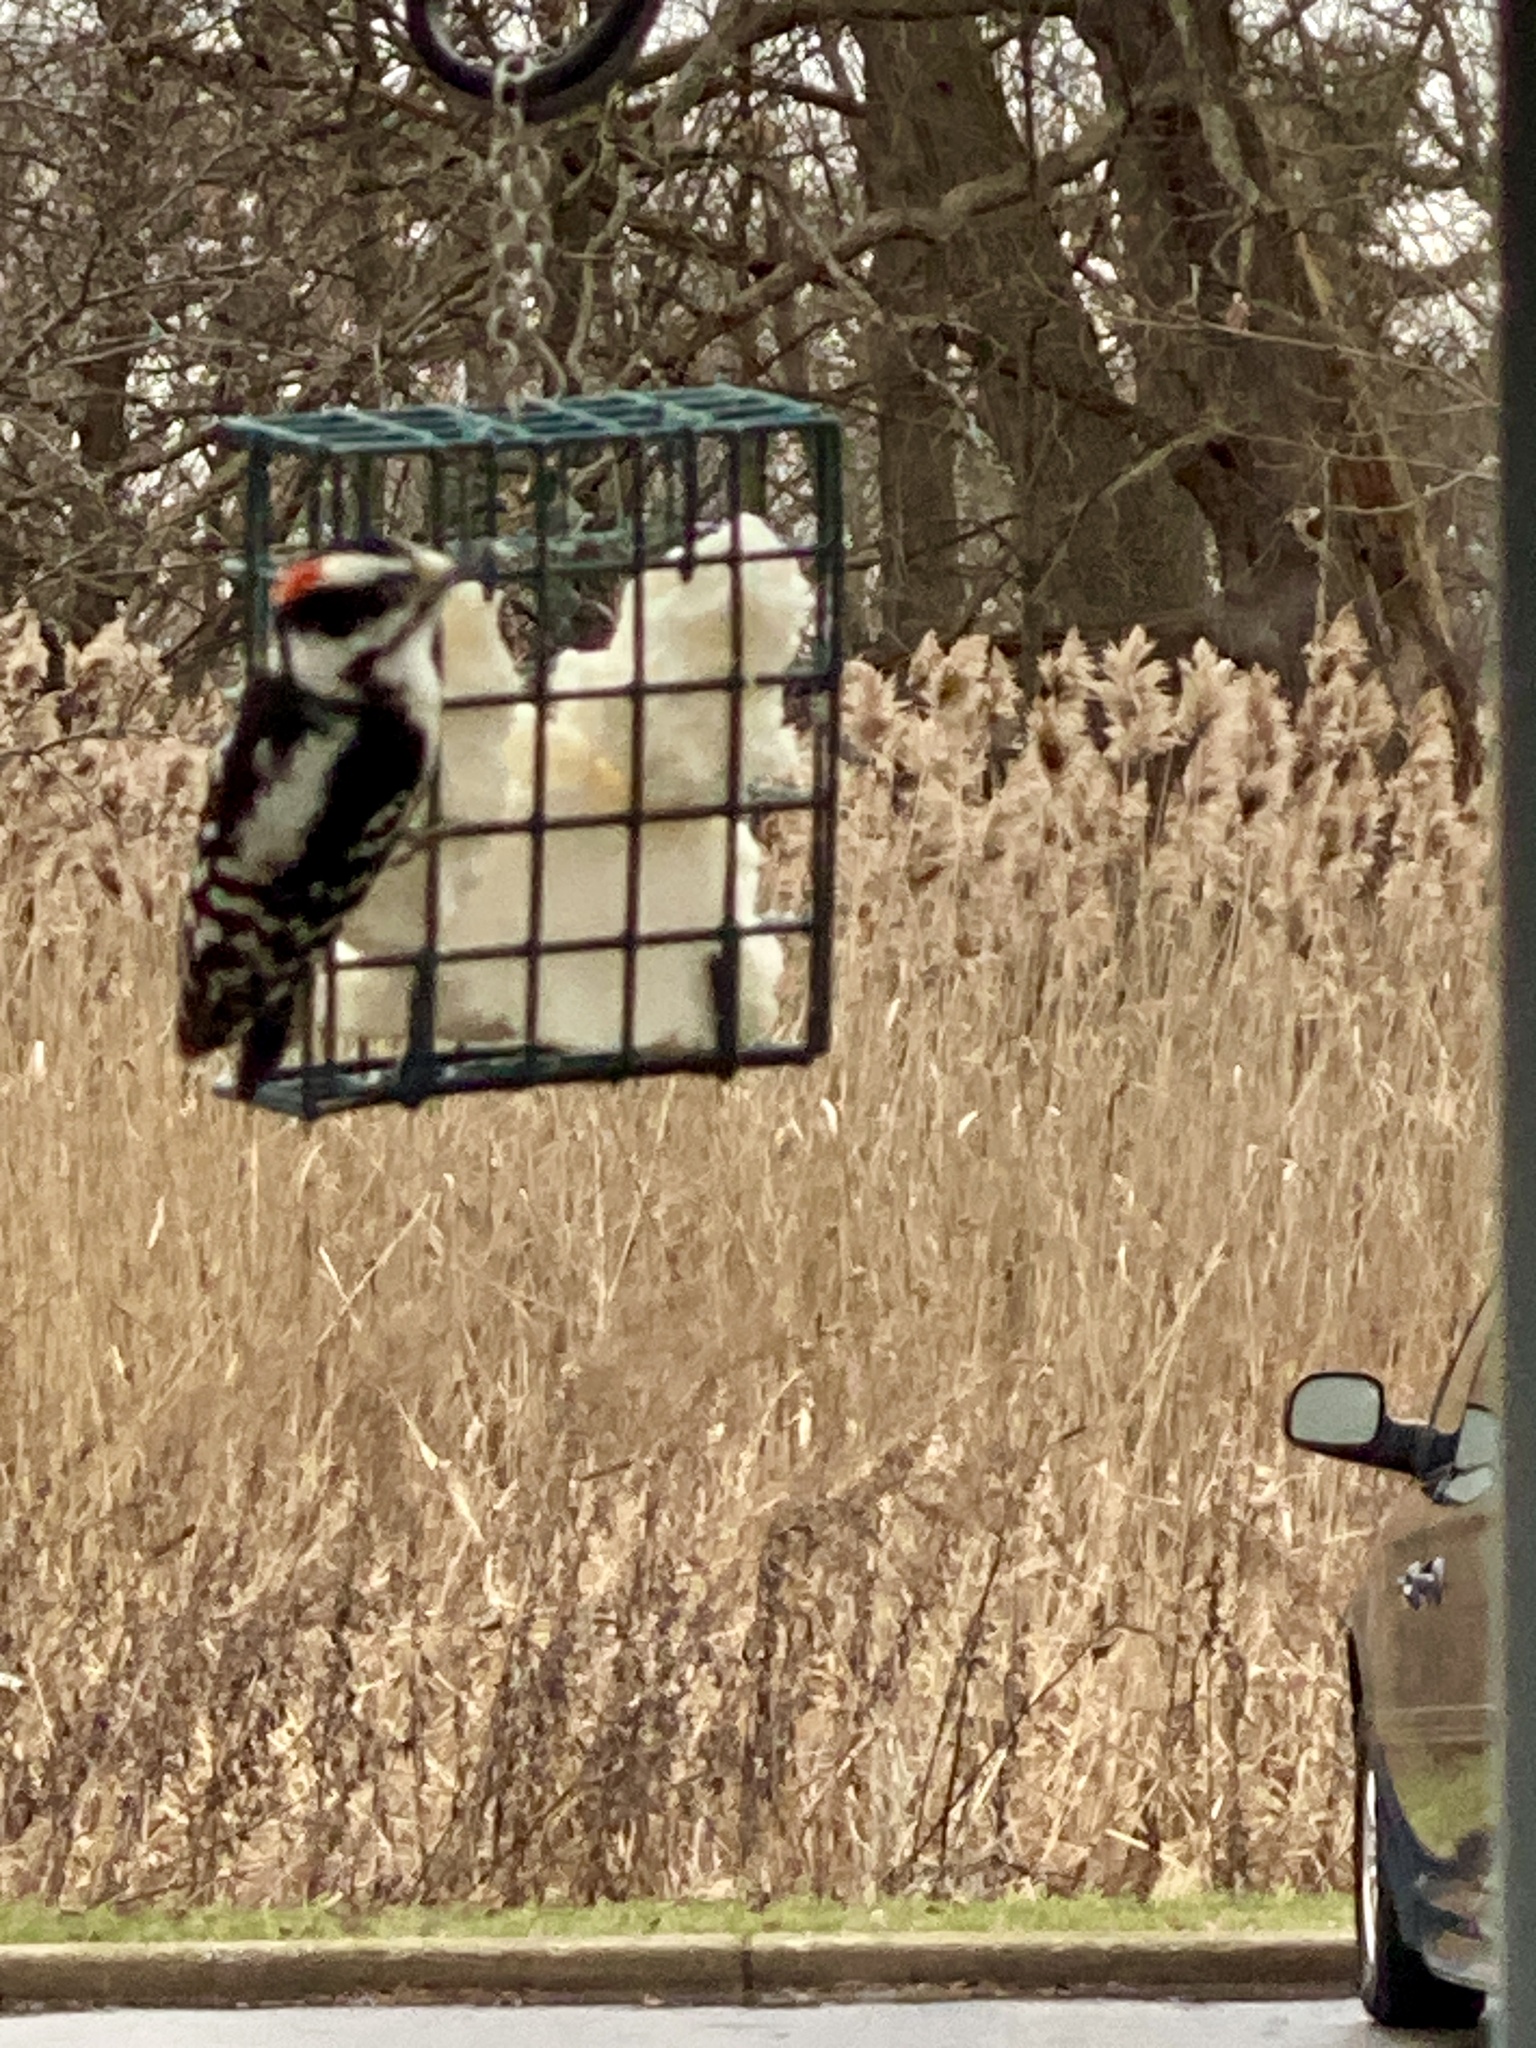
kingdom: Animalia
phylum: Chordata
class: Aves
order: Piciformes
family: Picidae
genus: Dryobates
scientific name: Dryobates pubescens
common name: Downy woodpecker
